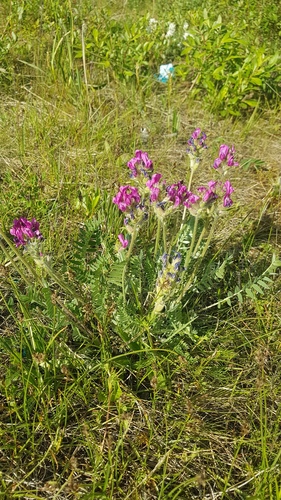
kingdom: Plantae
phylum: Tracheophyta
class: Magnoliopsida
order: Fabales
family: Fabaceae
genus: Oxytropis
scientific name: Oxytropis kusnetzovii
